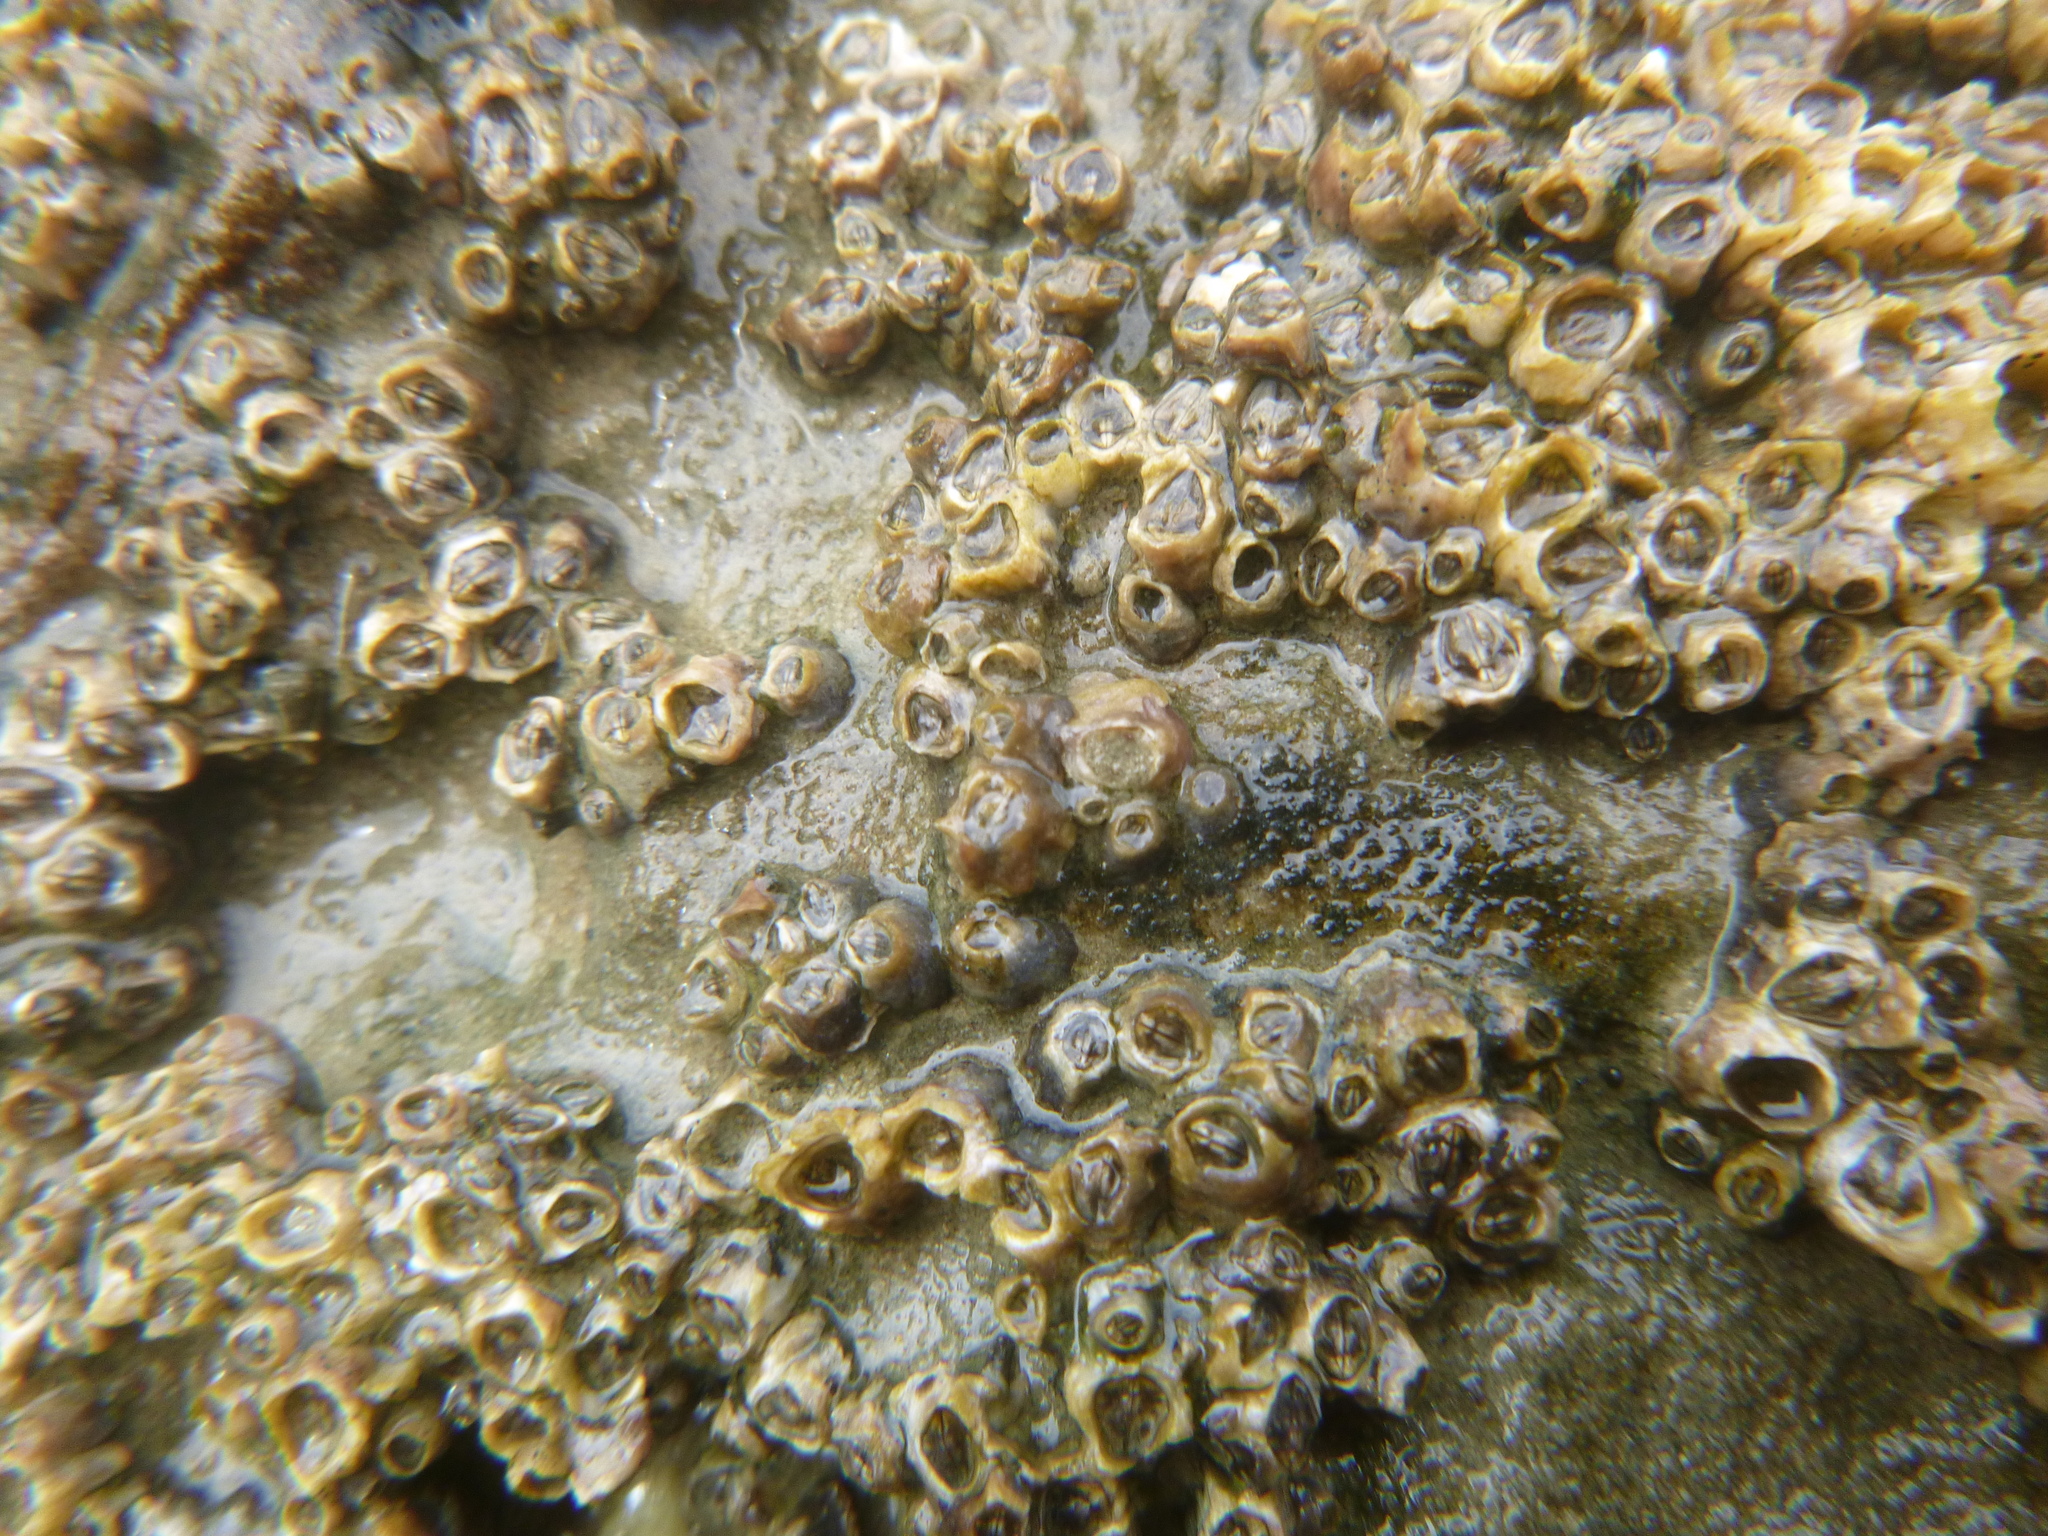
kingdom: Animalia
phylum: Arthropoda
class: Maxillopoda
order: Sessilia
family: Chthamalidae
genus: Chamaesipho
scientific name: Chamaesipho columna
